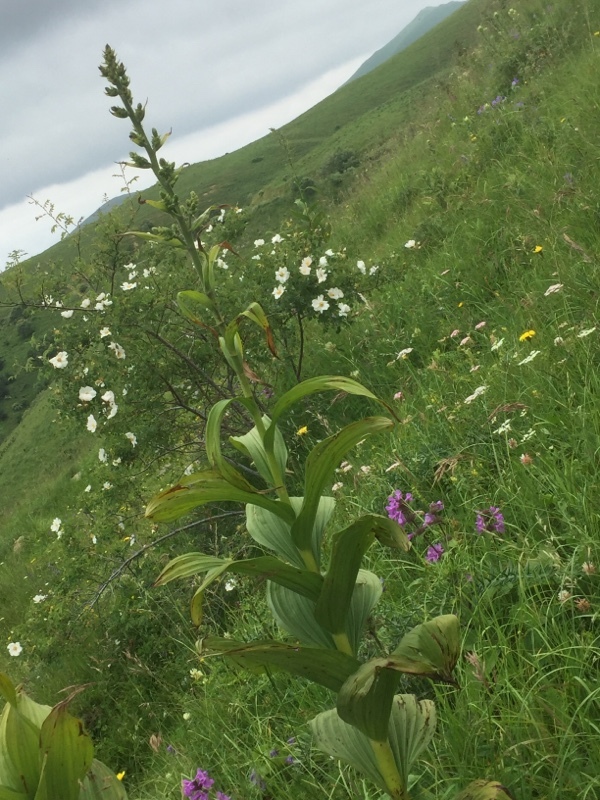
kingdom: Plantae
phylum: Tracheophyta
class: Liliopsida
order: Liliales
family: Melanthiaceae
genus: Veratrum
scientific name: Veratrum album
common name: White veratrum
